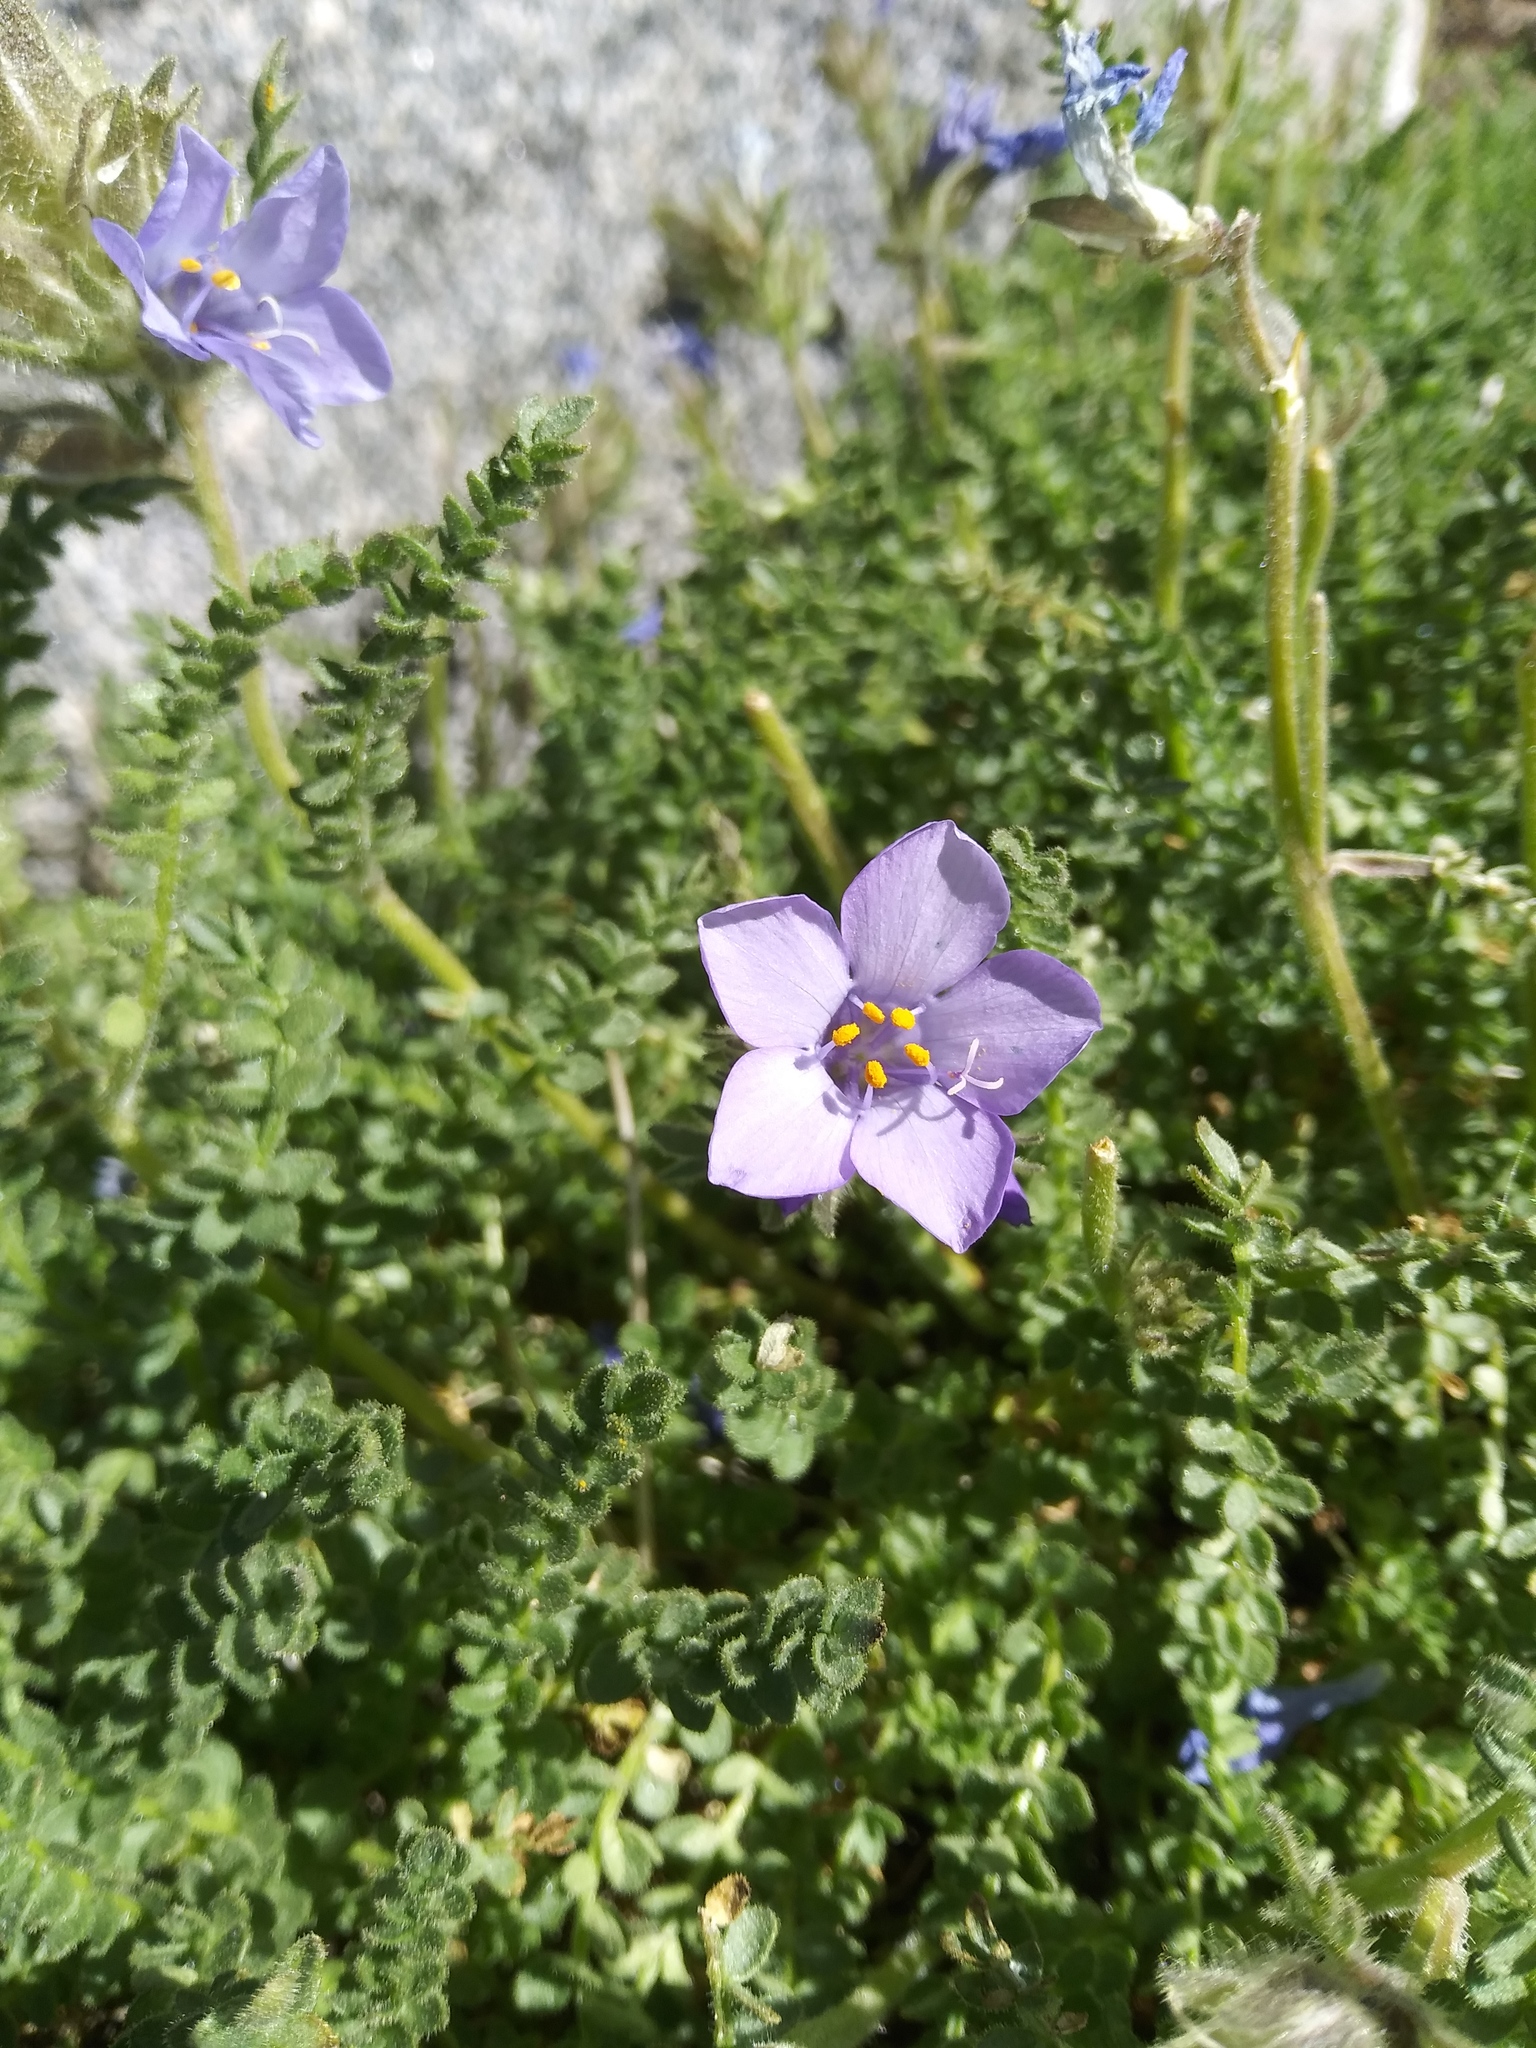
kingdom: Plantae
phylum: Tracheophyta
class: Magnoliopsida
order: Ericales
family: Polemoniaceae
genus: Polemonium
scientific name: Polemonium viscosum
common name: Skunk jacob's-ladder
